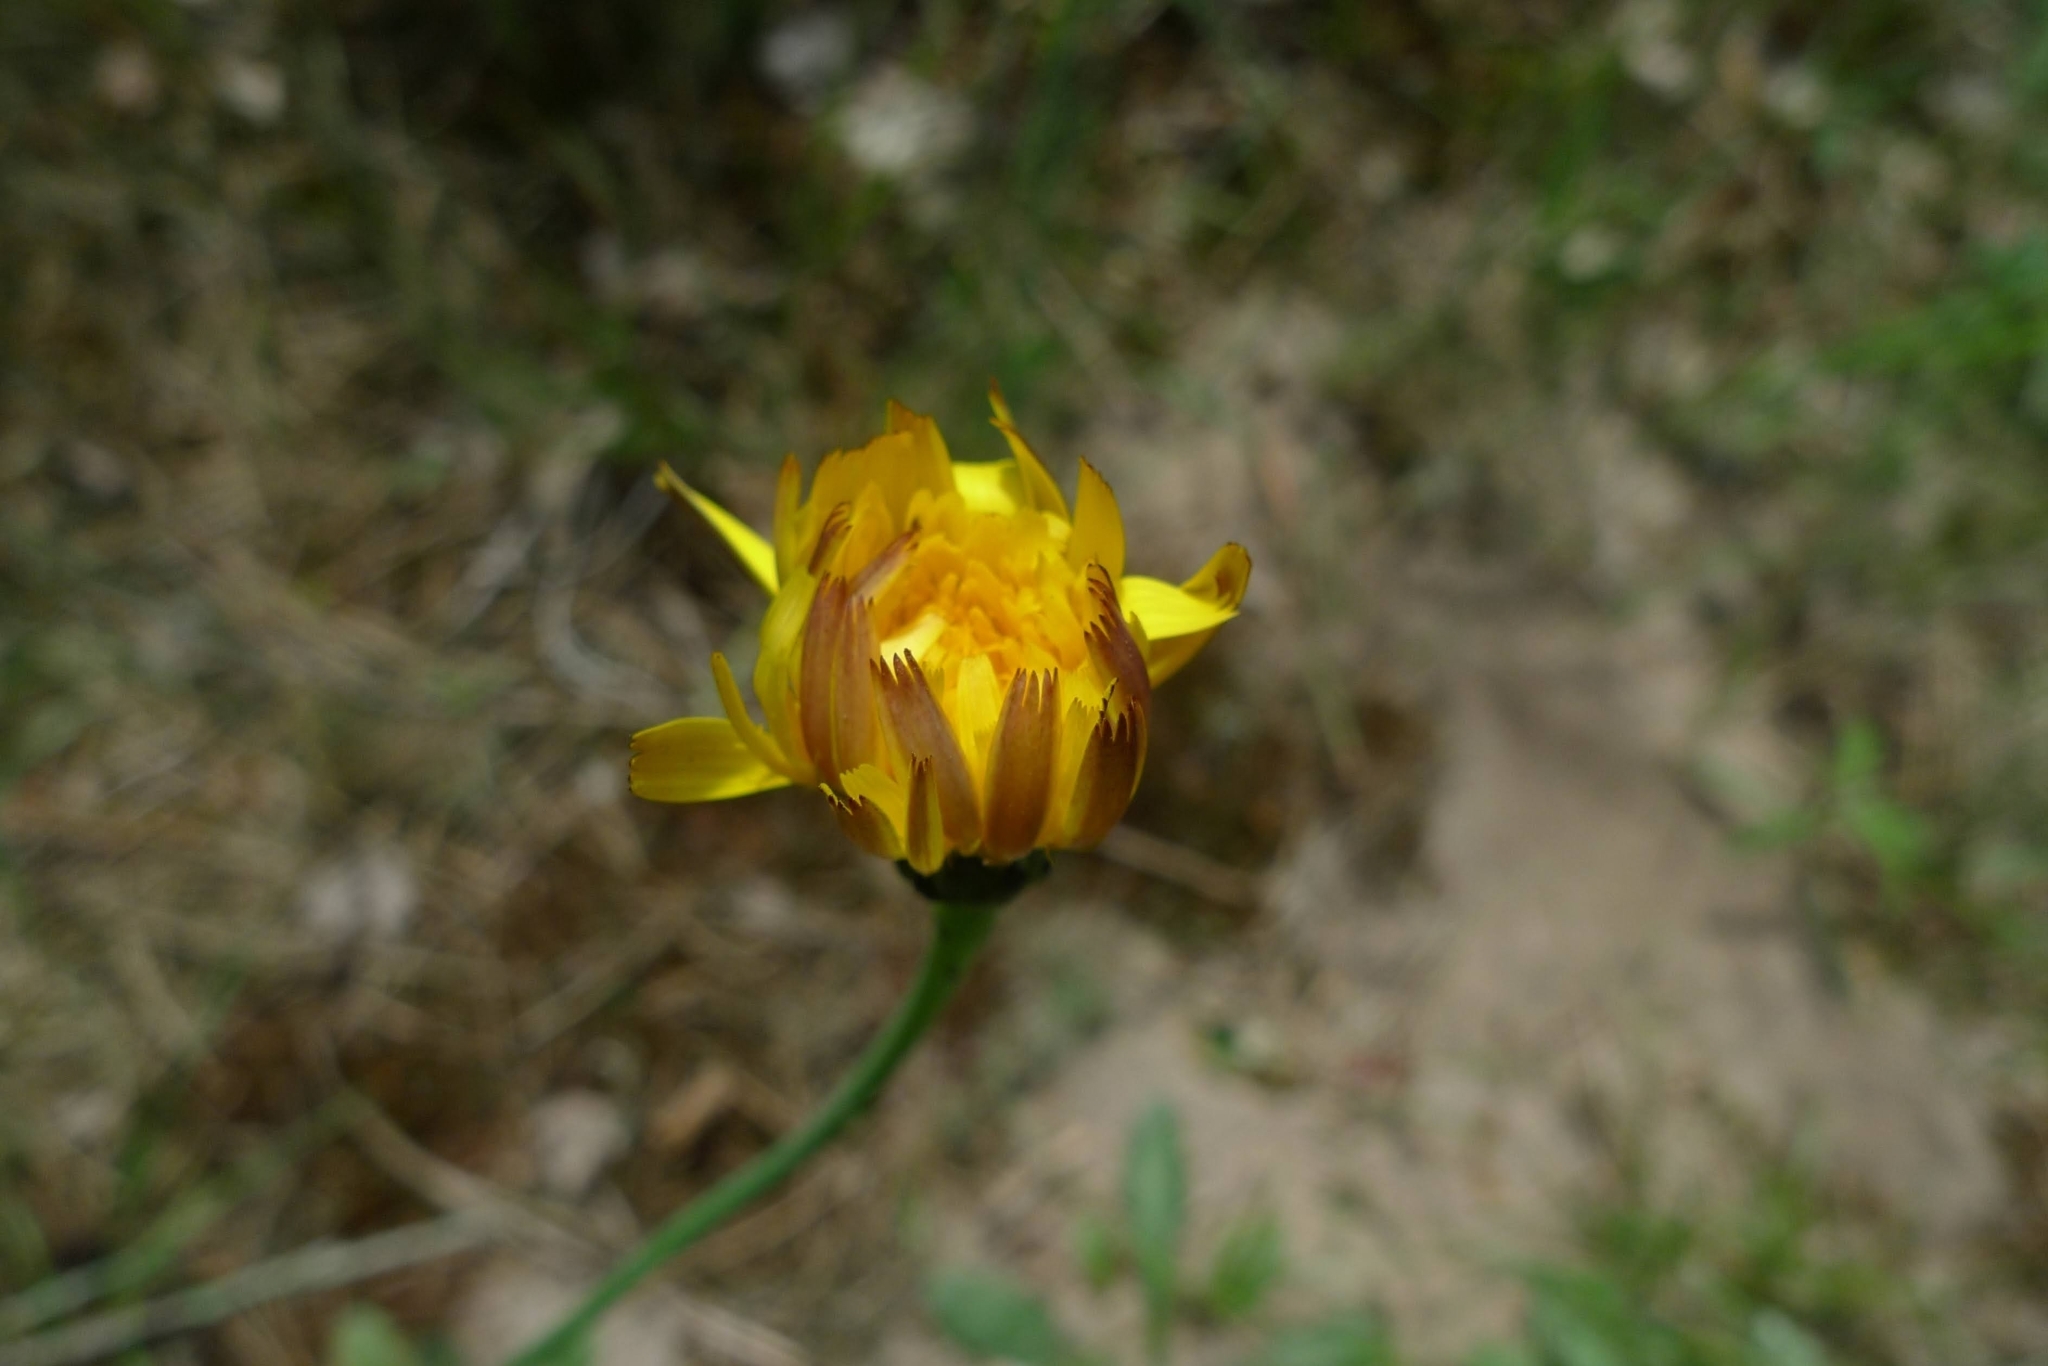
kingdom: Plantae
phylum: Tracheophyta
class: Magnoliopsida
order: Asterales
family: Asteraceae
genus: Hypochaeris
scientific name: Hypochaeris radicata
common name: Flatweed
